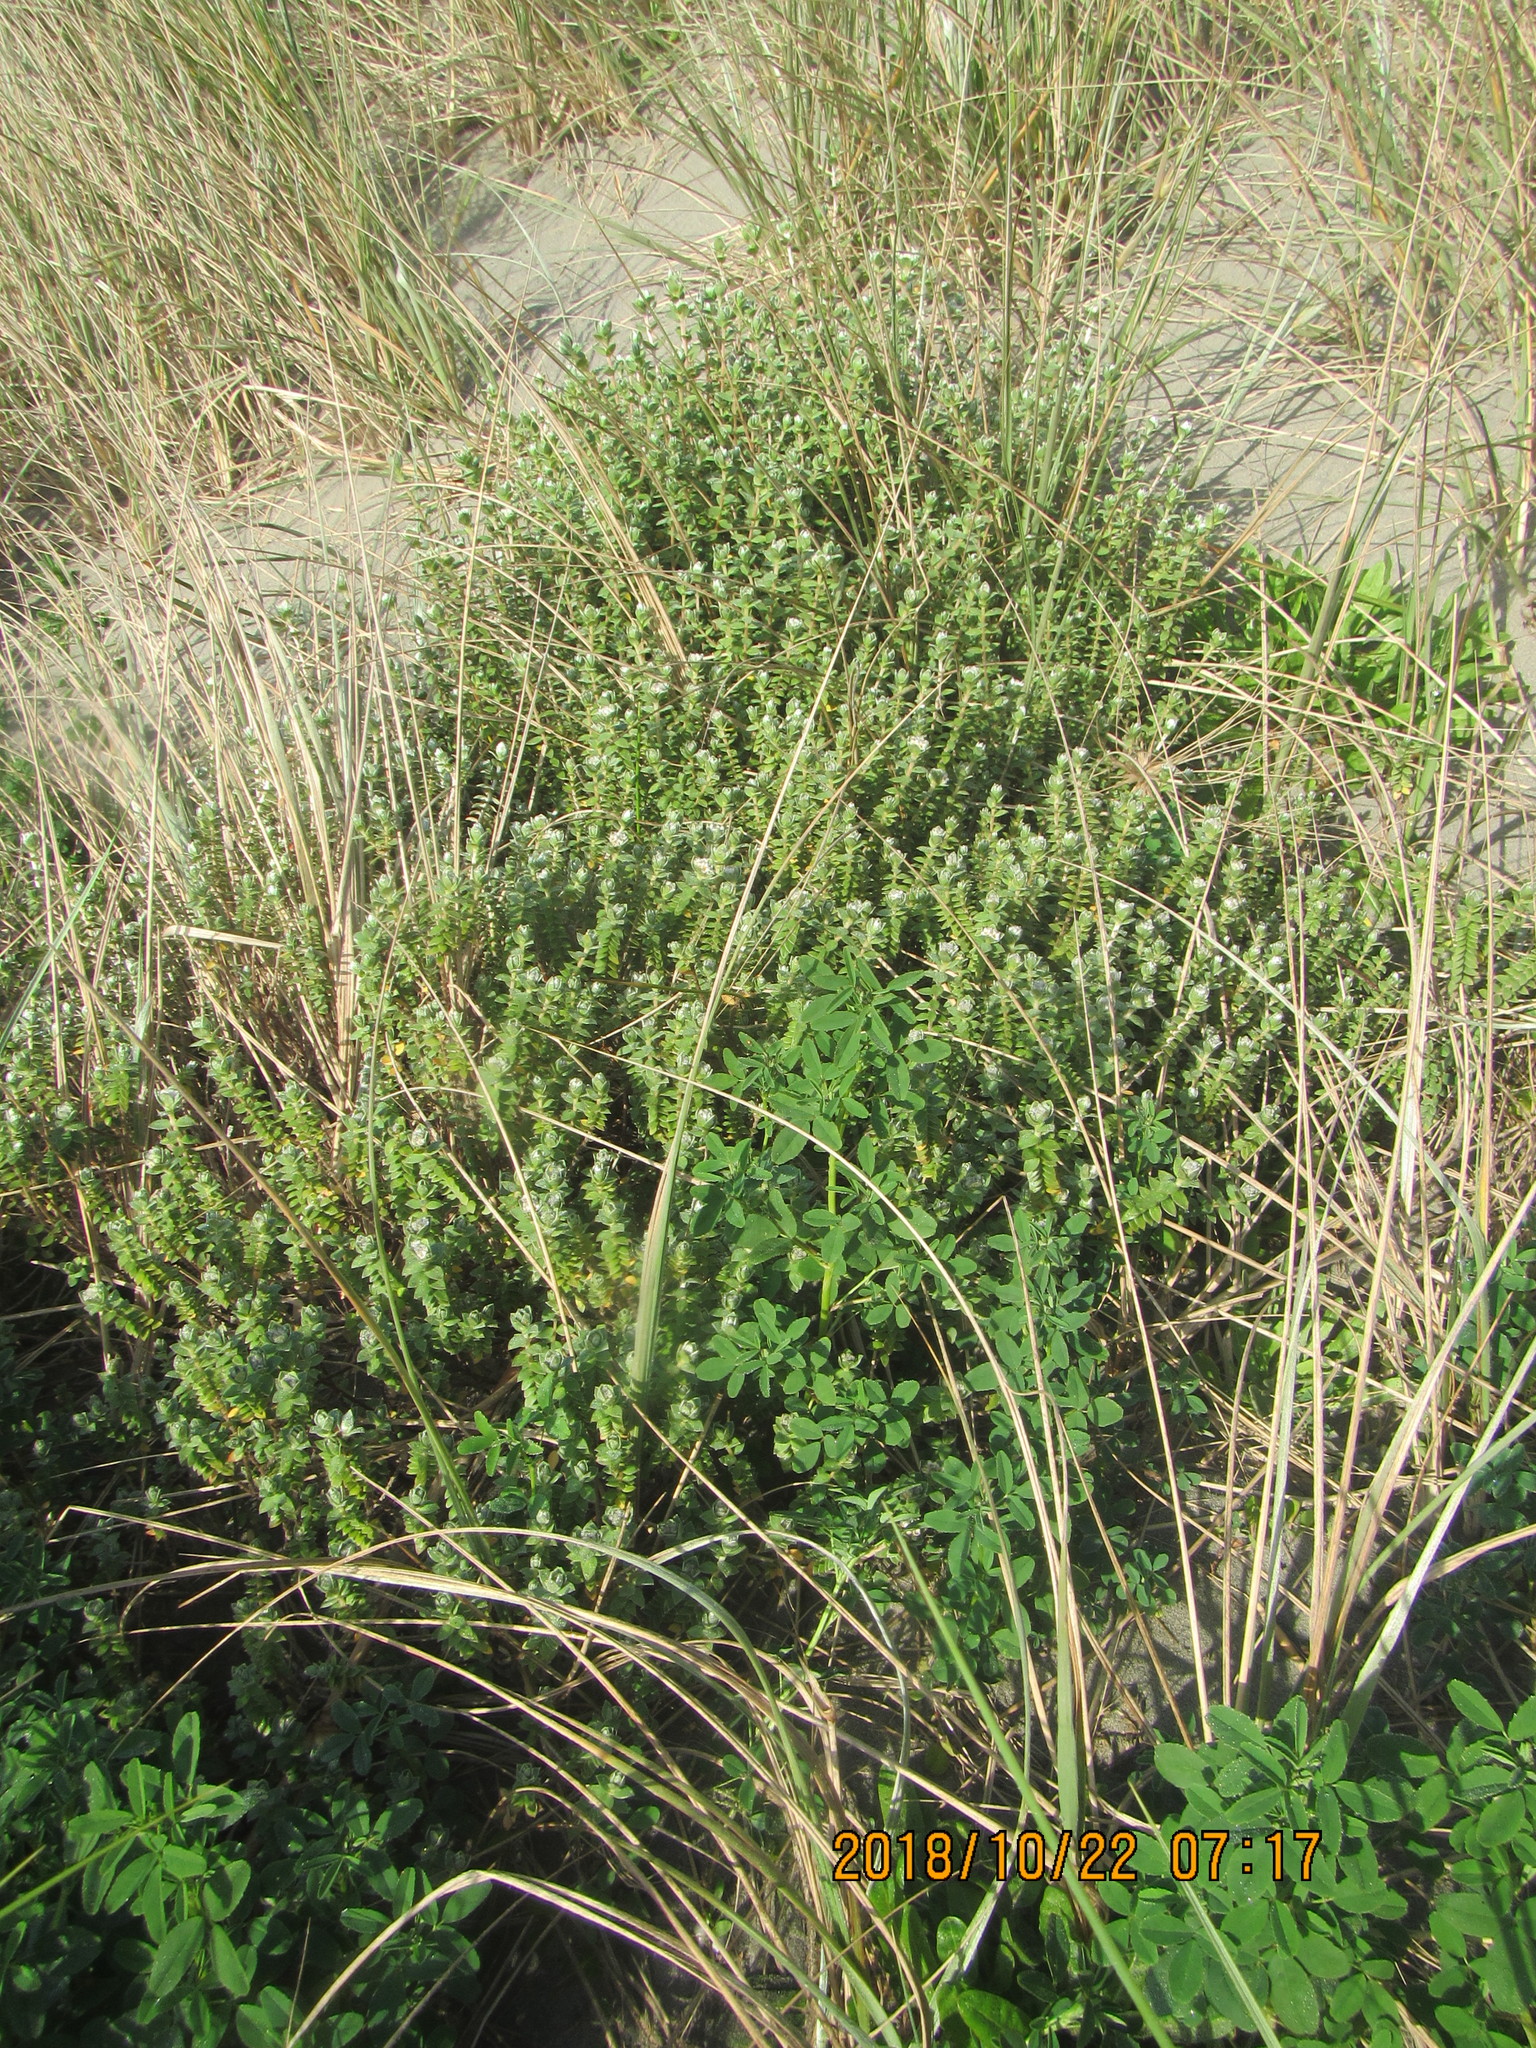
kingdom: Plantae
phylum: Tracheophyta
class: Magnoliopsida
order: Malvales
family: Thymelaeaceae
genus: Pimelea
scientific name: Pimelea villosa
